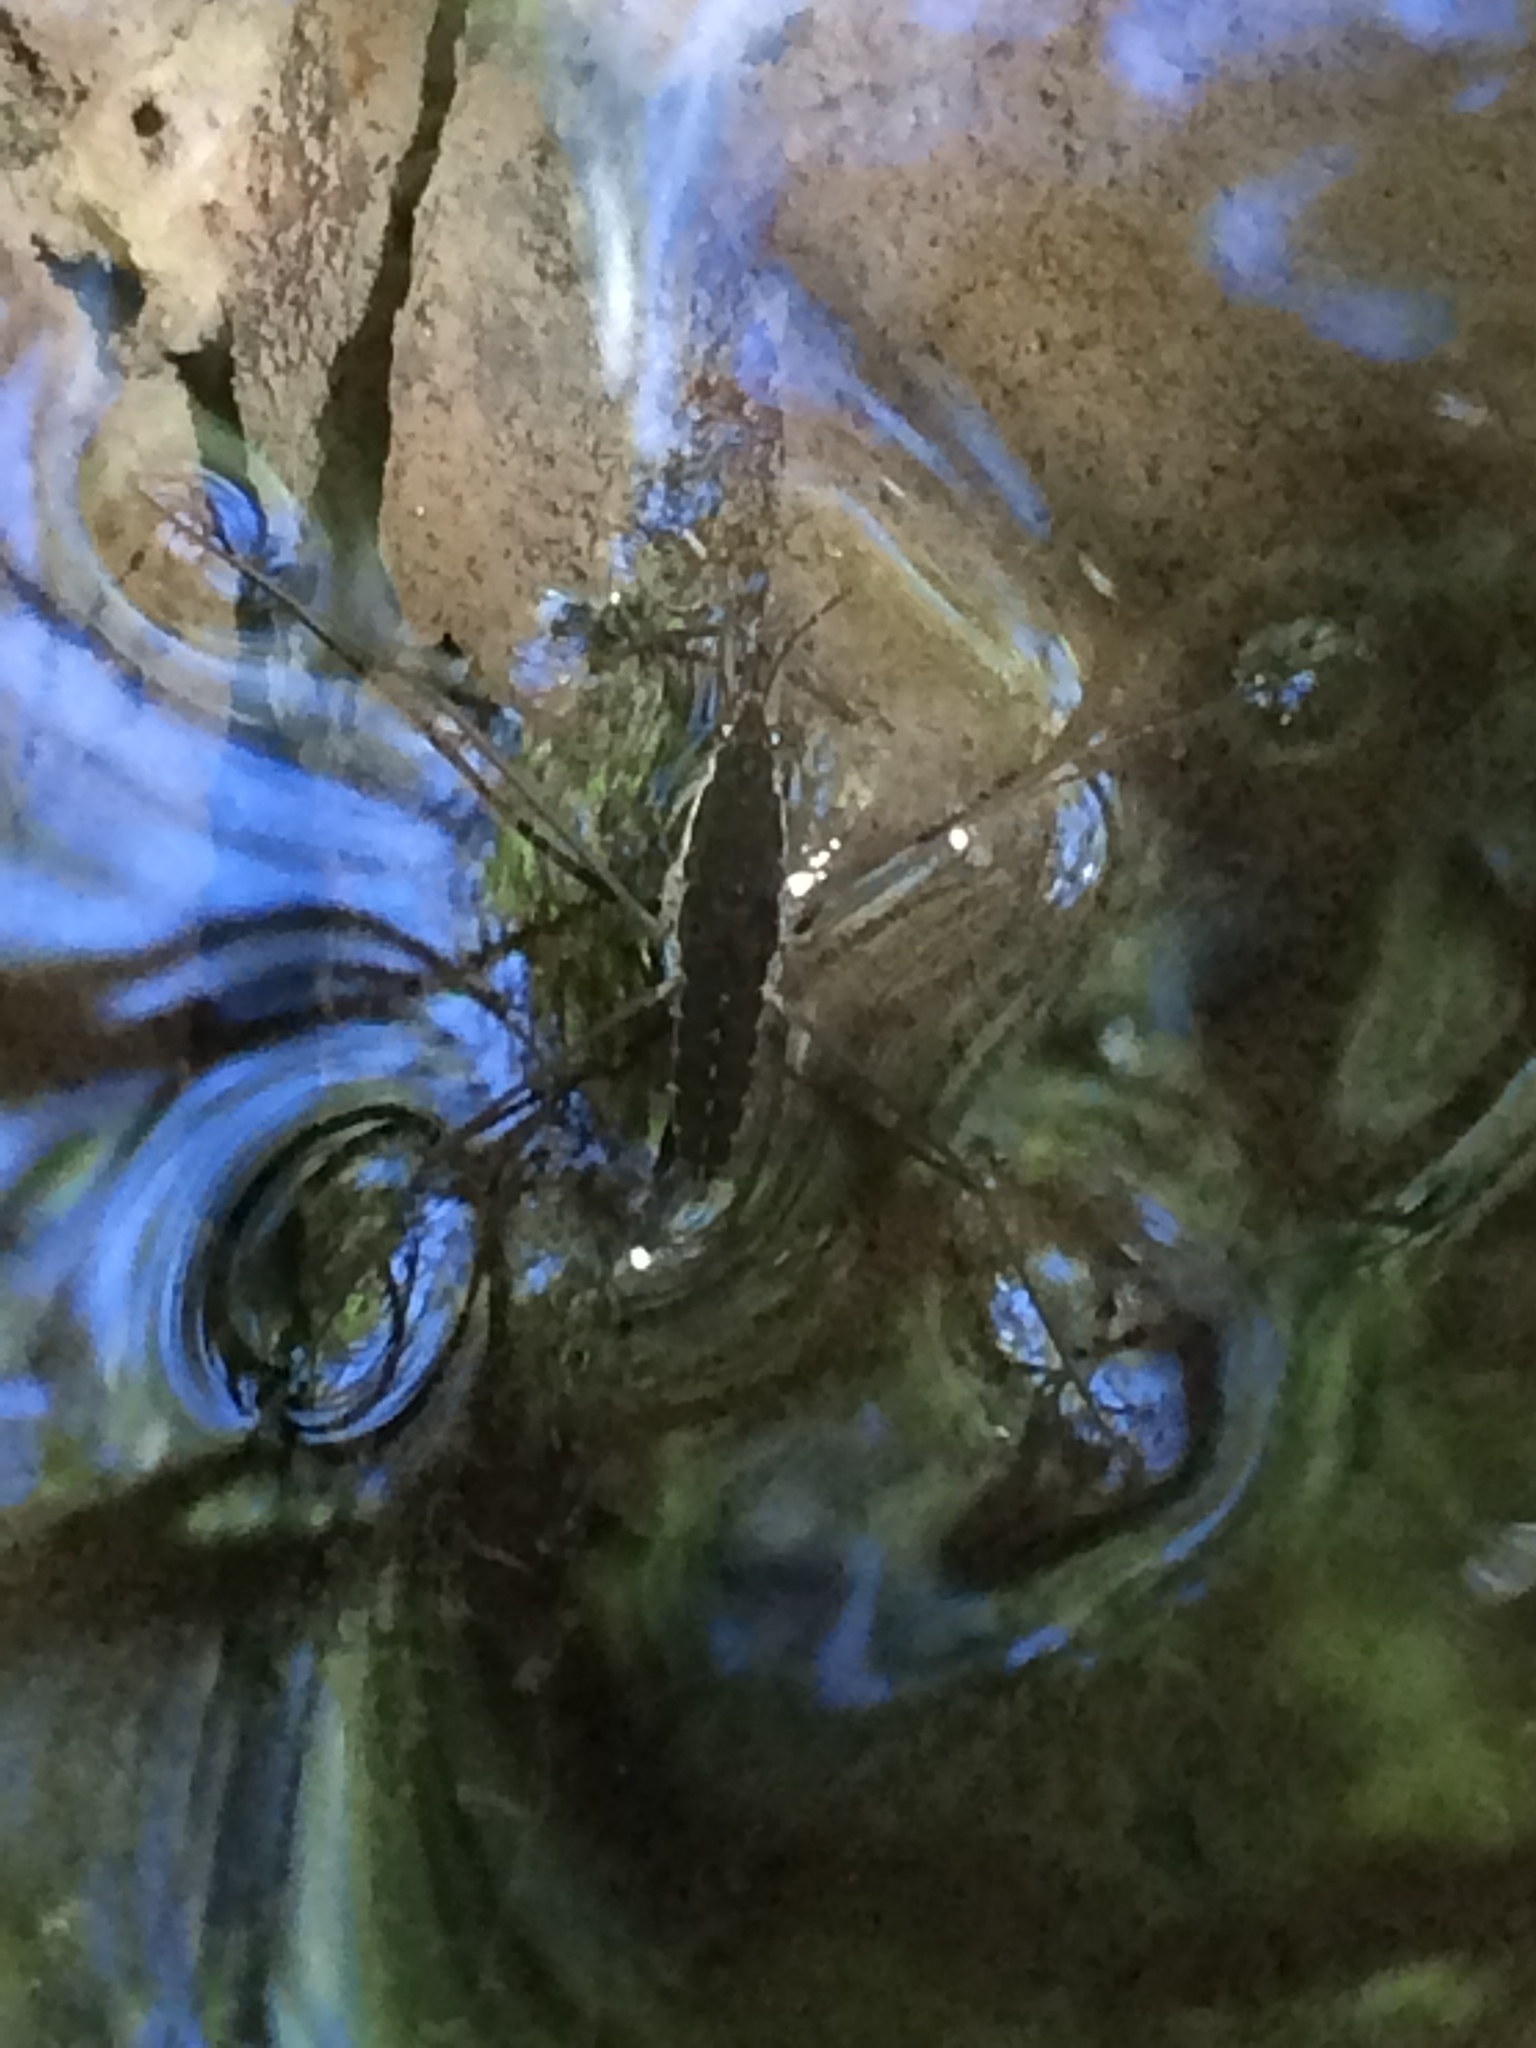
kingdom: Animalia
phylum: Arthropoda
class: Insecta
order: Hemiptera
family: Gerridae
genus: Aquarius
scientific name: Aquarius remigis
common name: Common water strider
